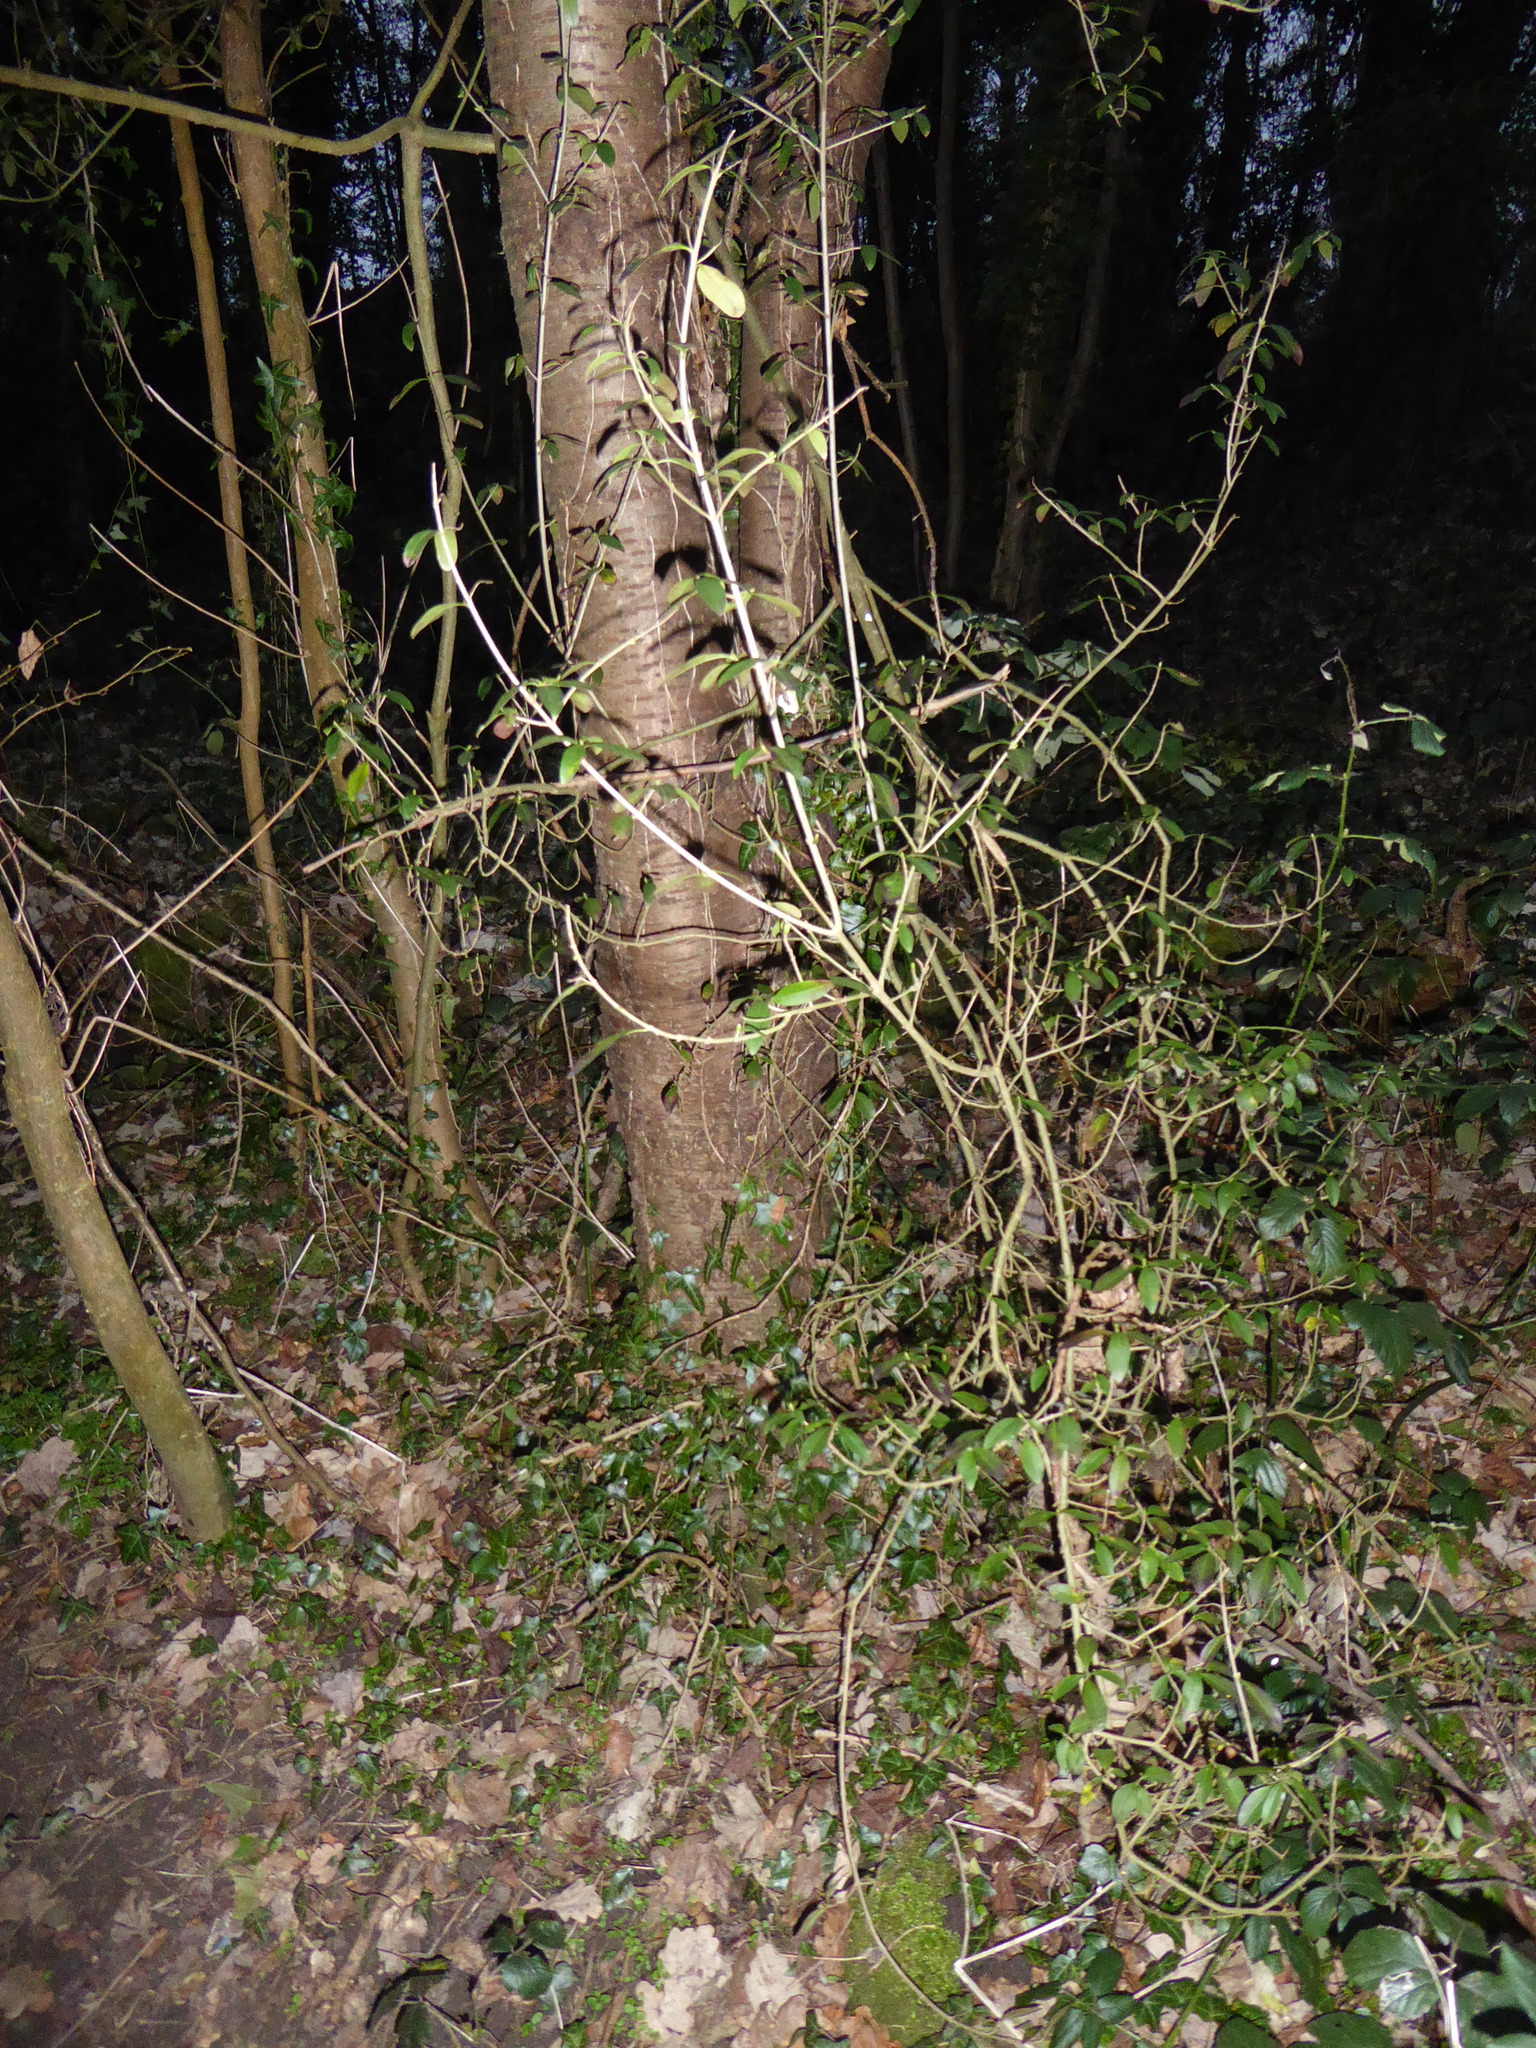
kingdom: Plantae
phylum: Tracheophyta
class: Magnoliopsida
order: Lamiales
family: Oleaceae
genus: Ligustrum
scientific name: Ligustrum vulgare
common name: Wild privet
